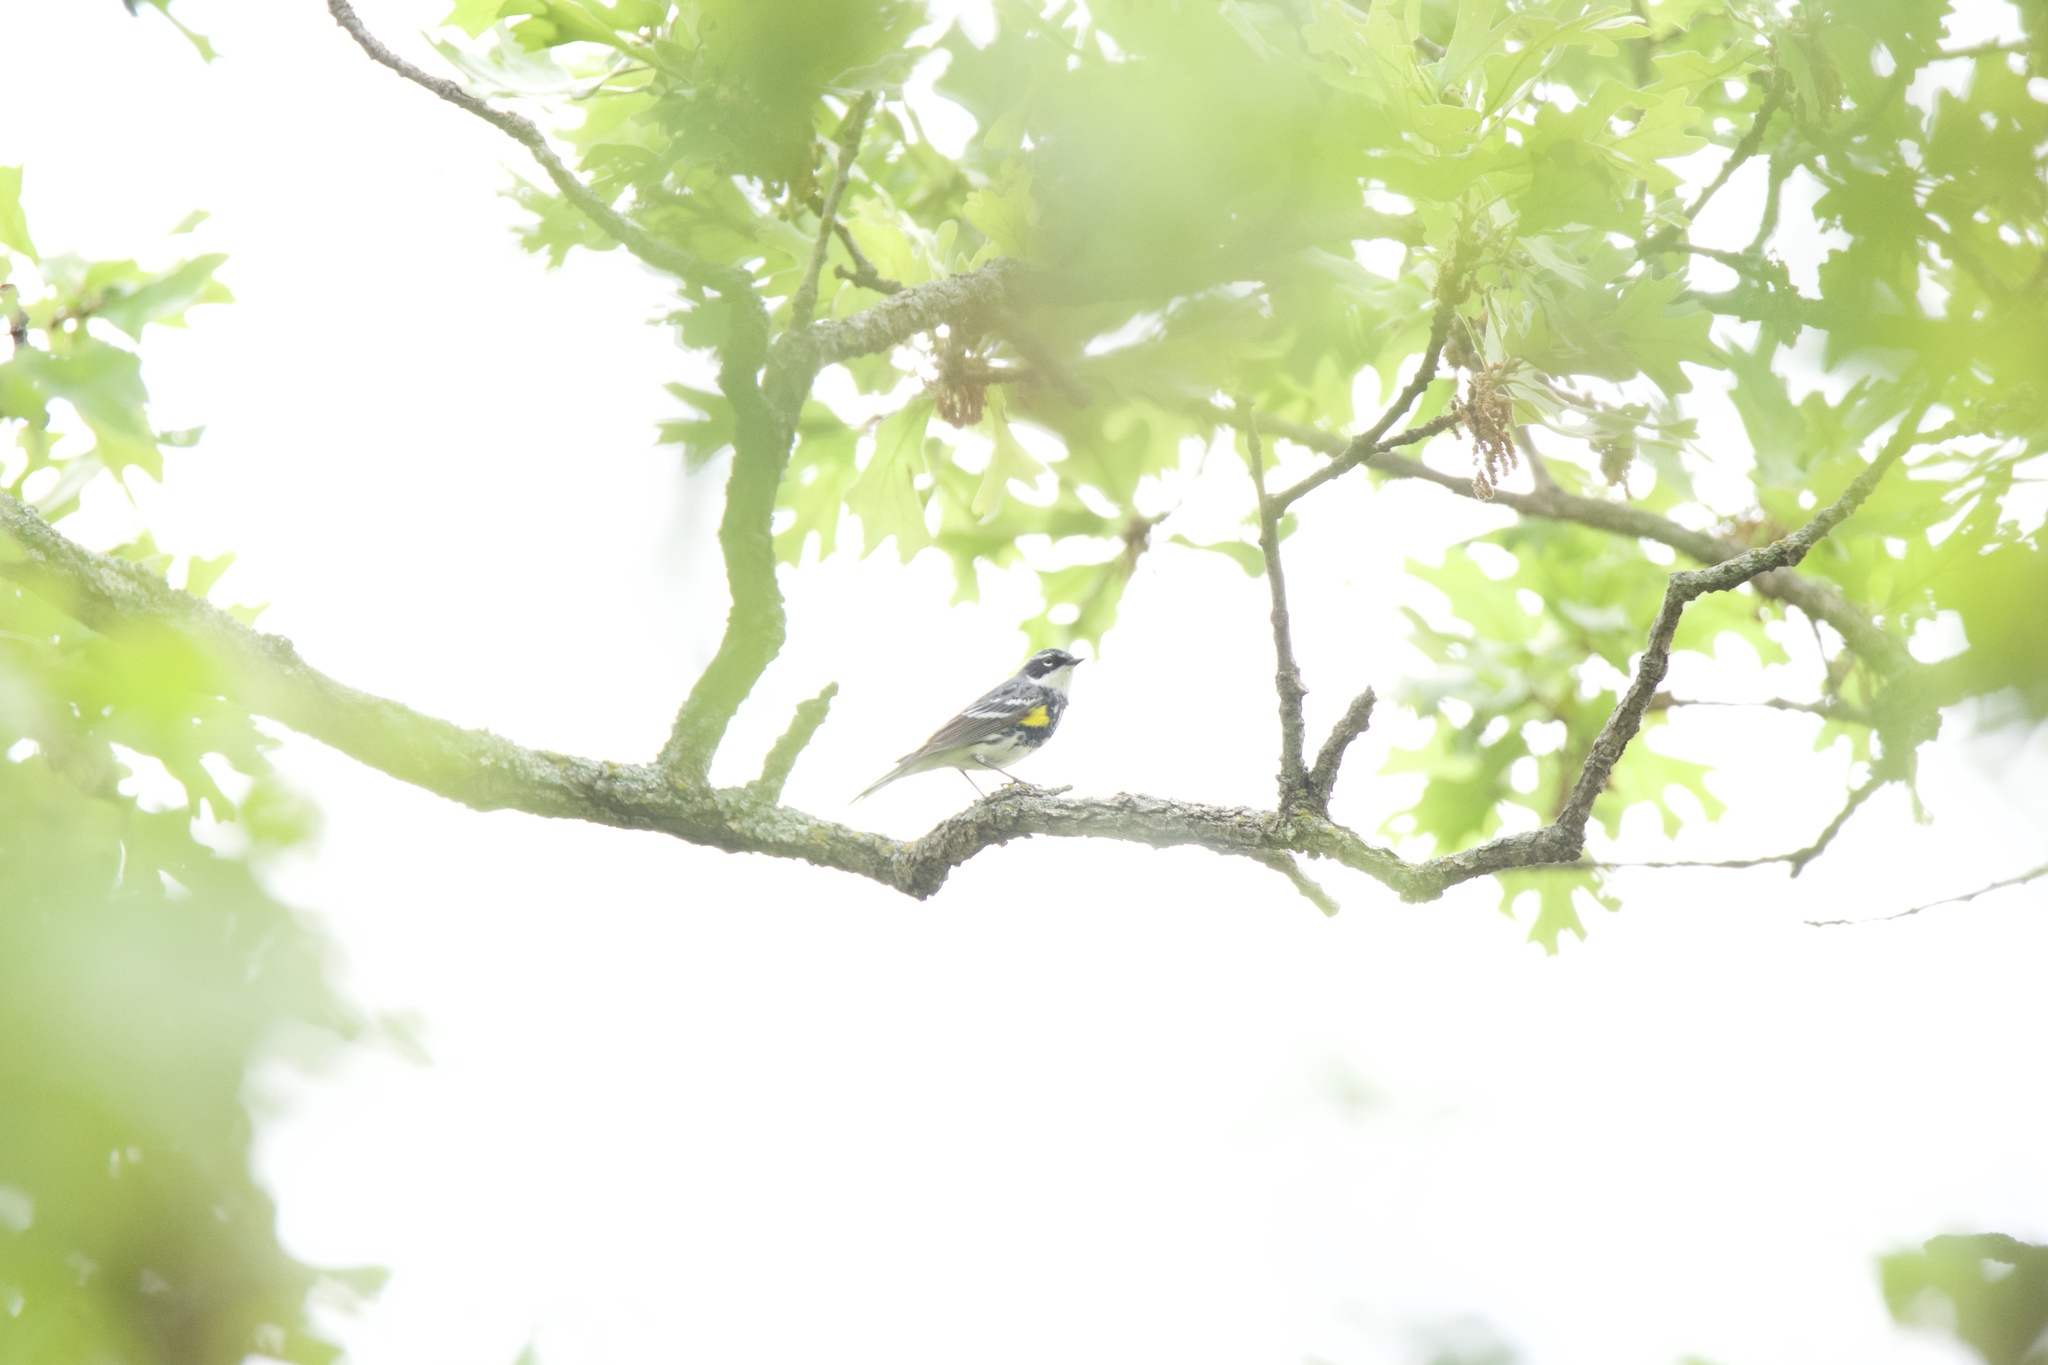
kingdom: Animalia
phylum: Chordata
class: Aves
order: Passeriformes
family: Parulidae
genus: Setophaga
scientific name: Setophaga coronata
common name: Myrtle warbler
